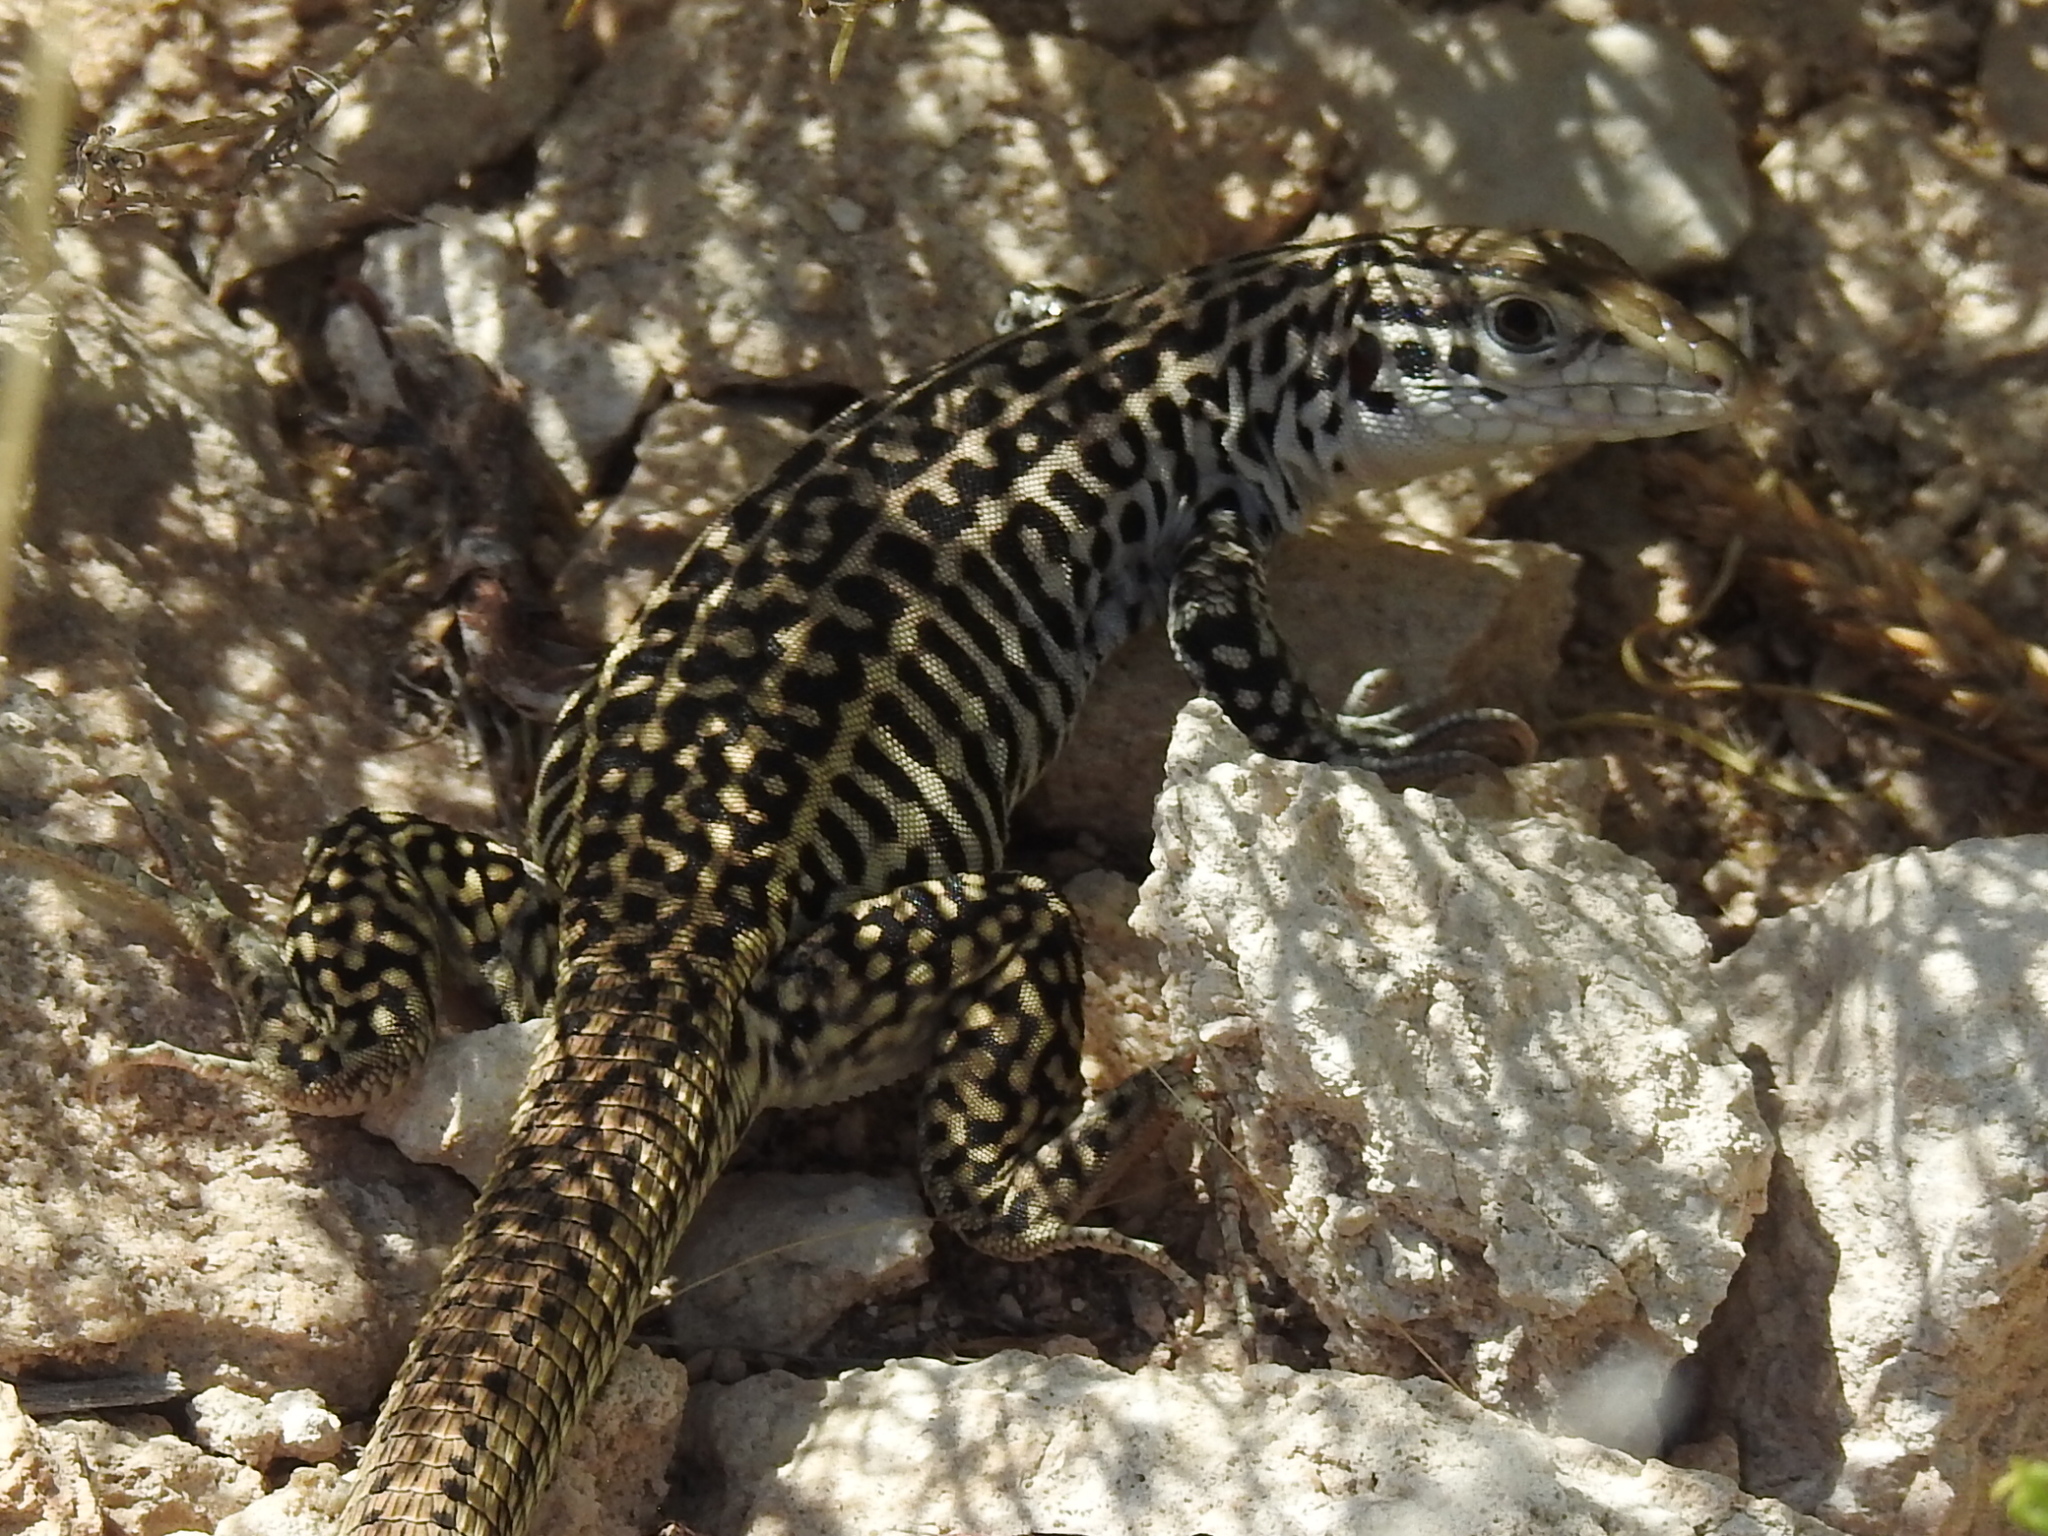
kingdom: Animalia
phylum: Chordata
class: Squamata
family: Teiidae
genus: Aspidoscelis
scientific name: Aspidoscelis tesselatus
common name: Common checkered whiptail [tesselata]
